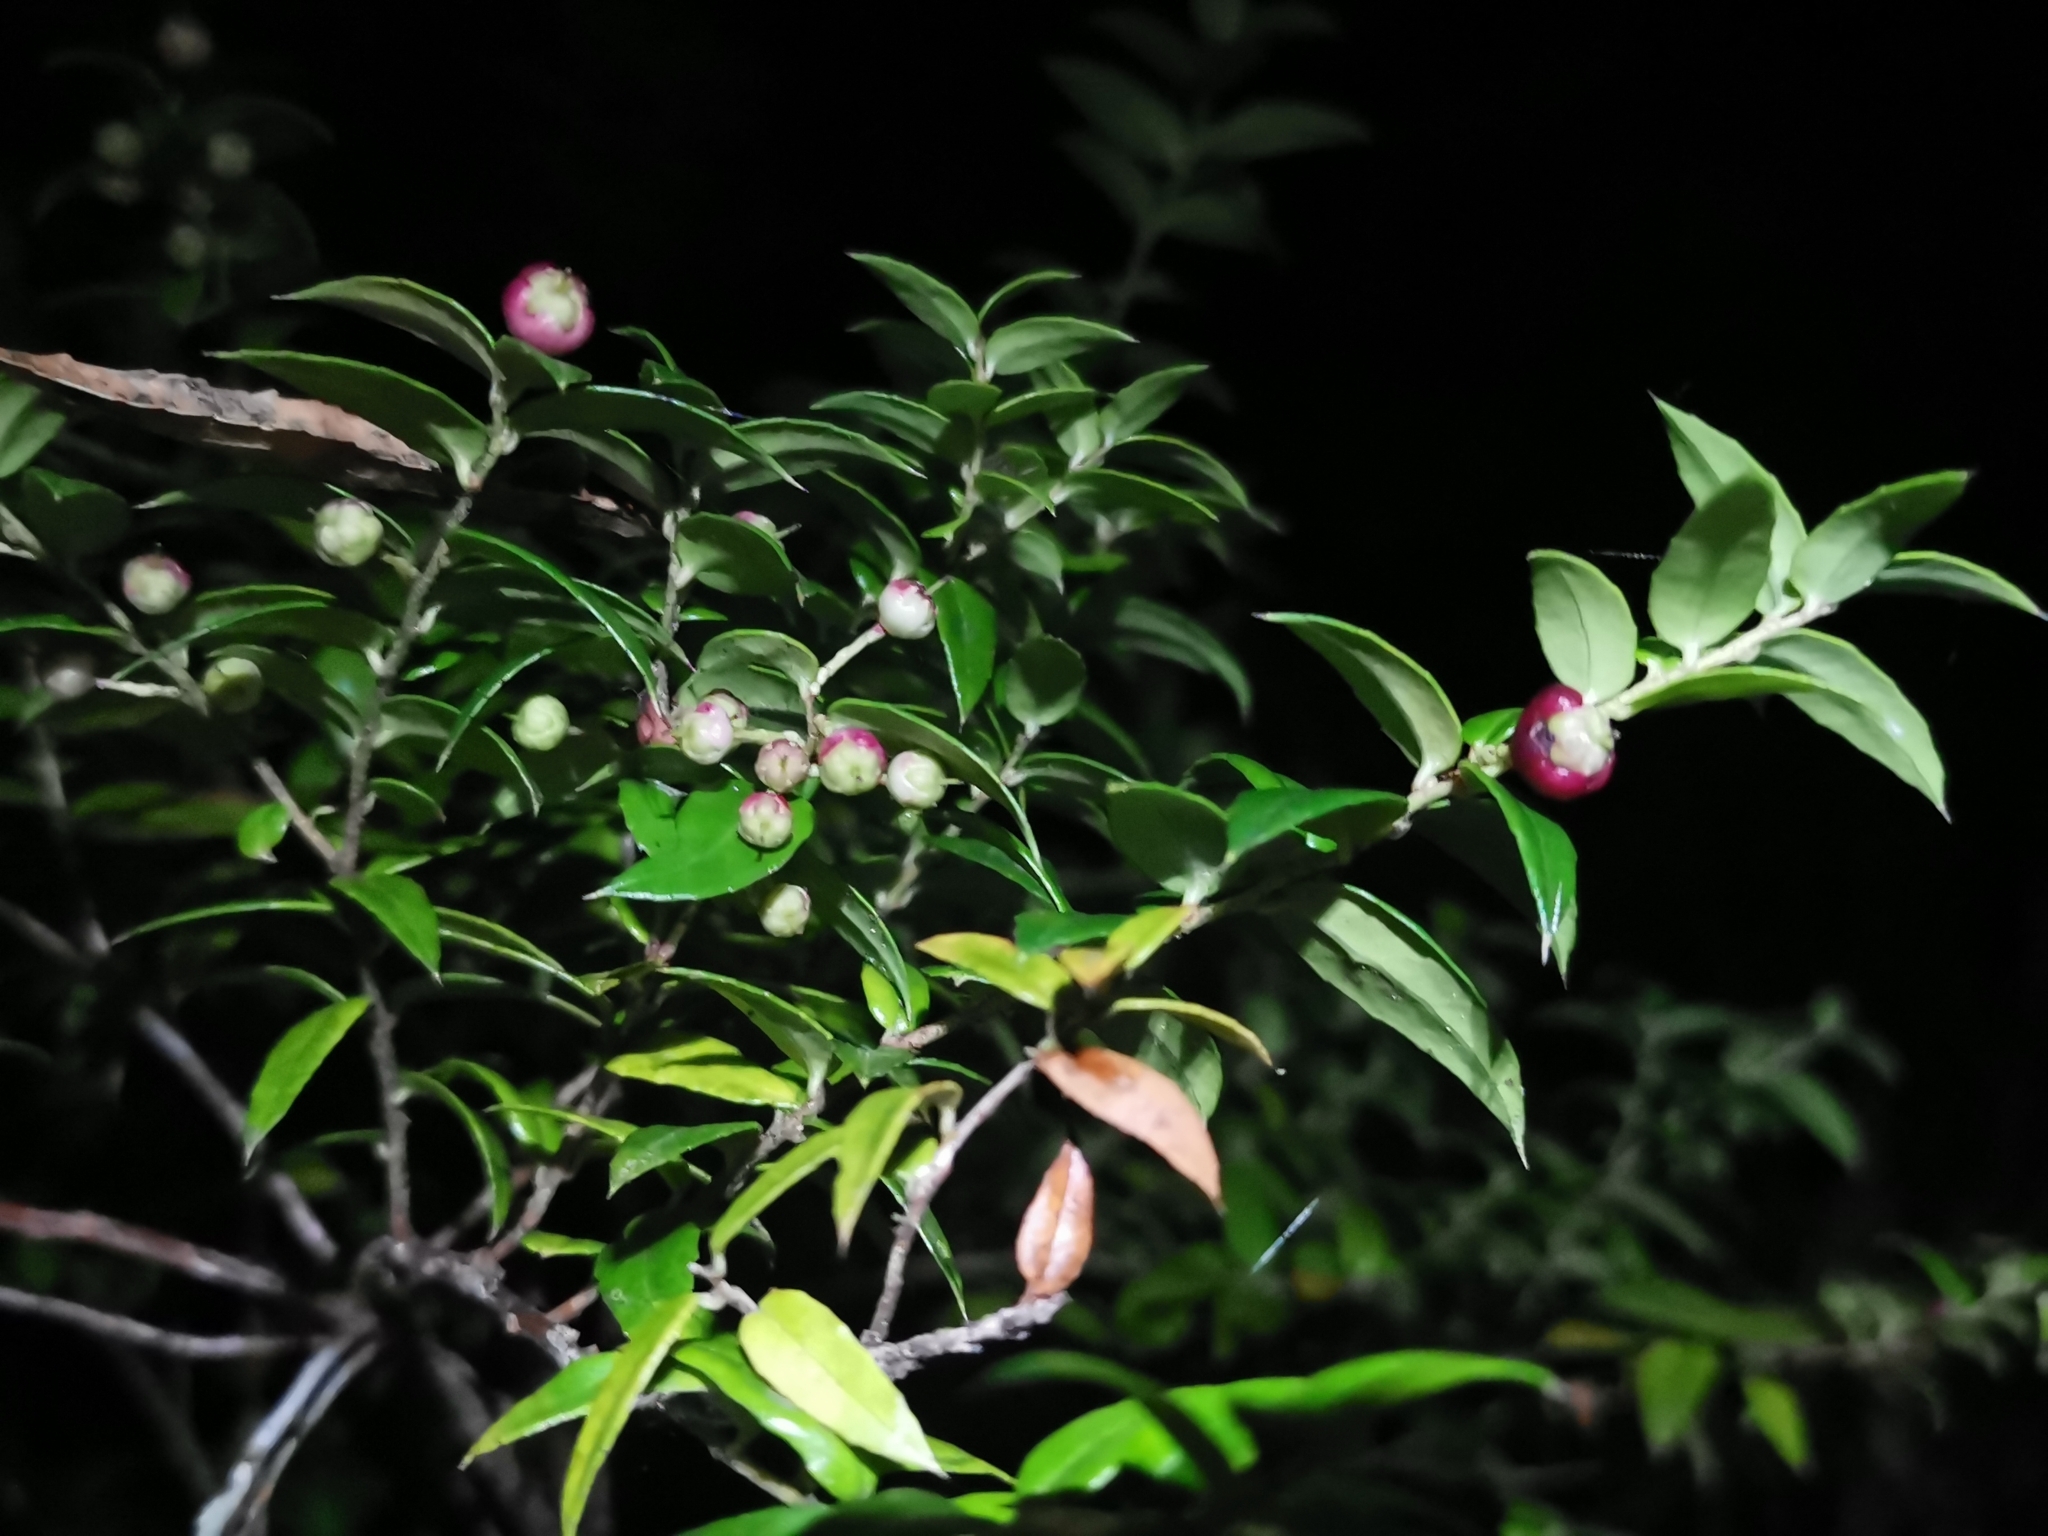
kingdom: Plantae
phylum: Tracheophyta
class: Magnoliopsida
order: Ericales
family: Ericaceae
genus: Gaultheria
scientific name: Gaultheria phillyreifolia
